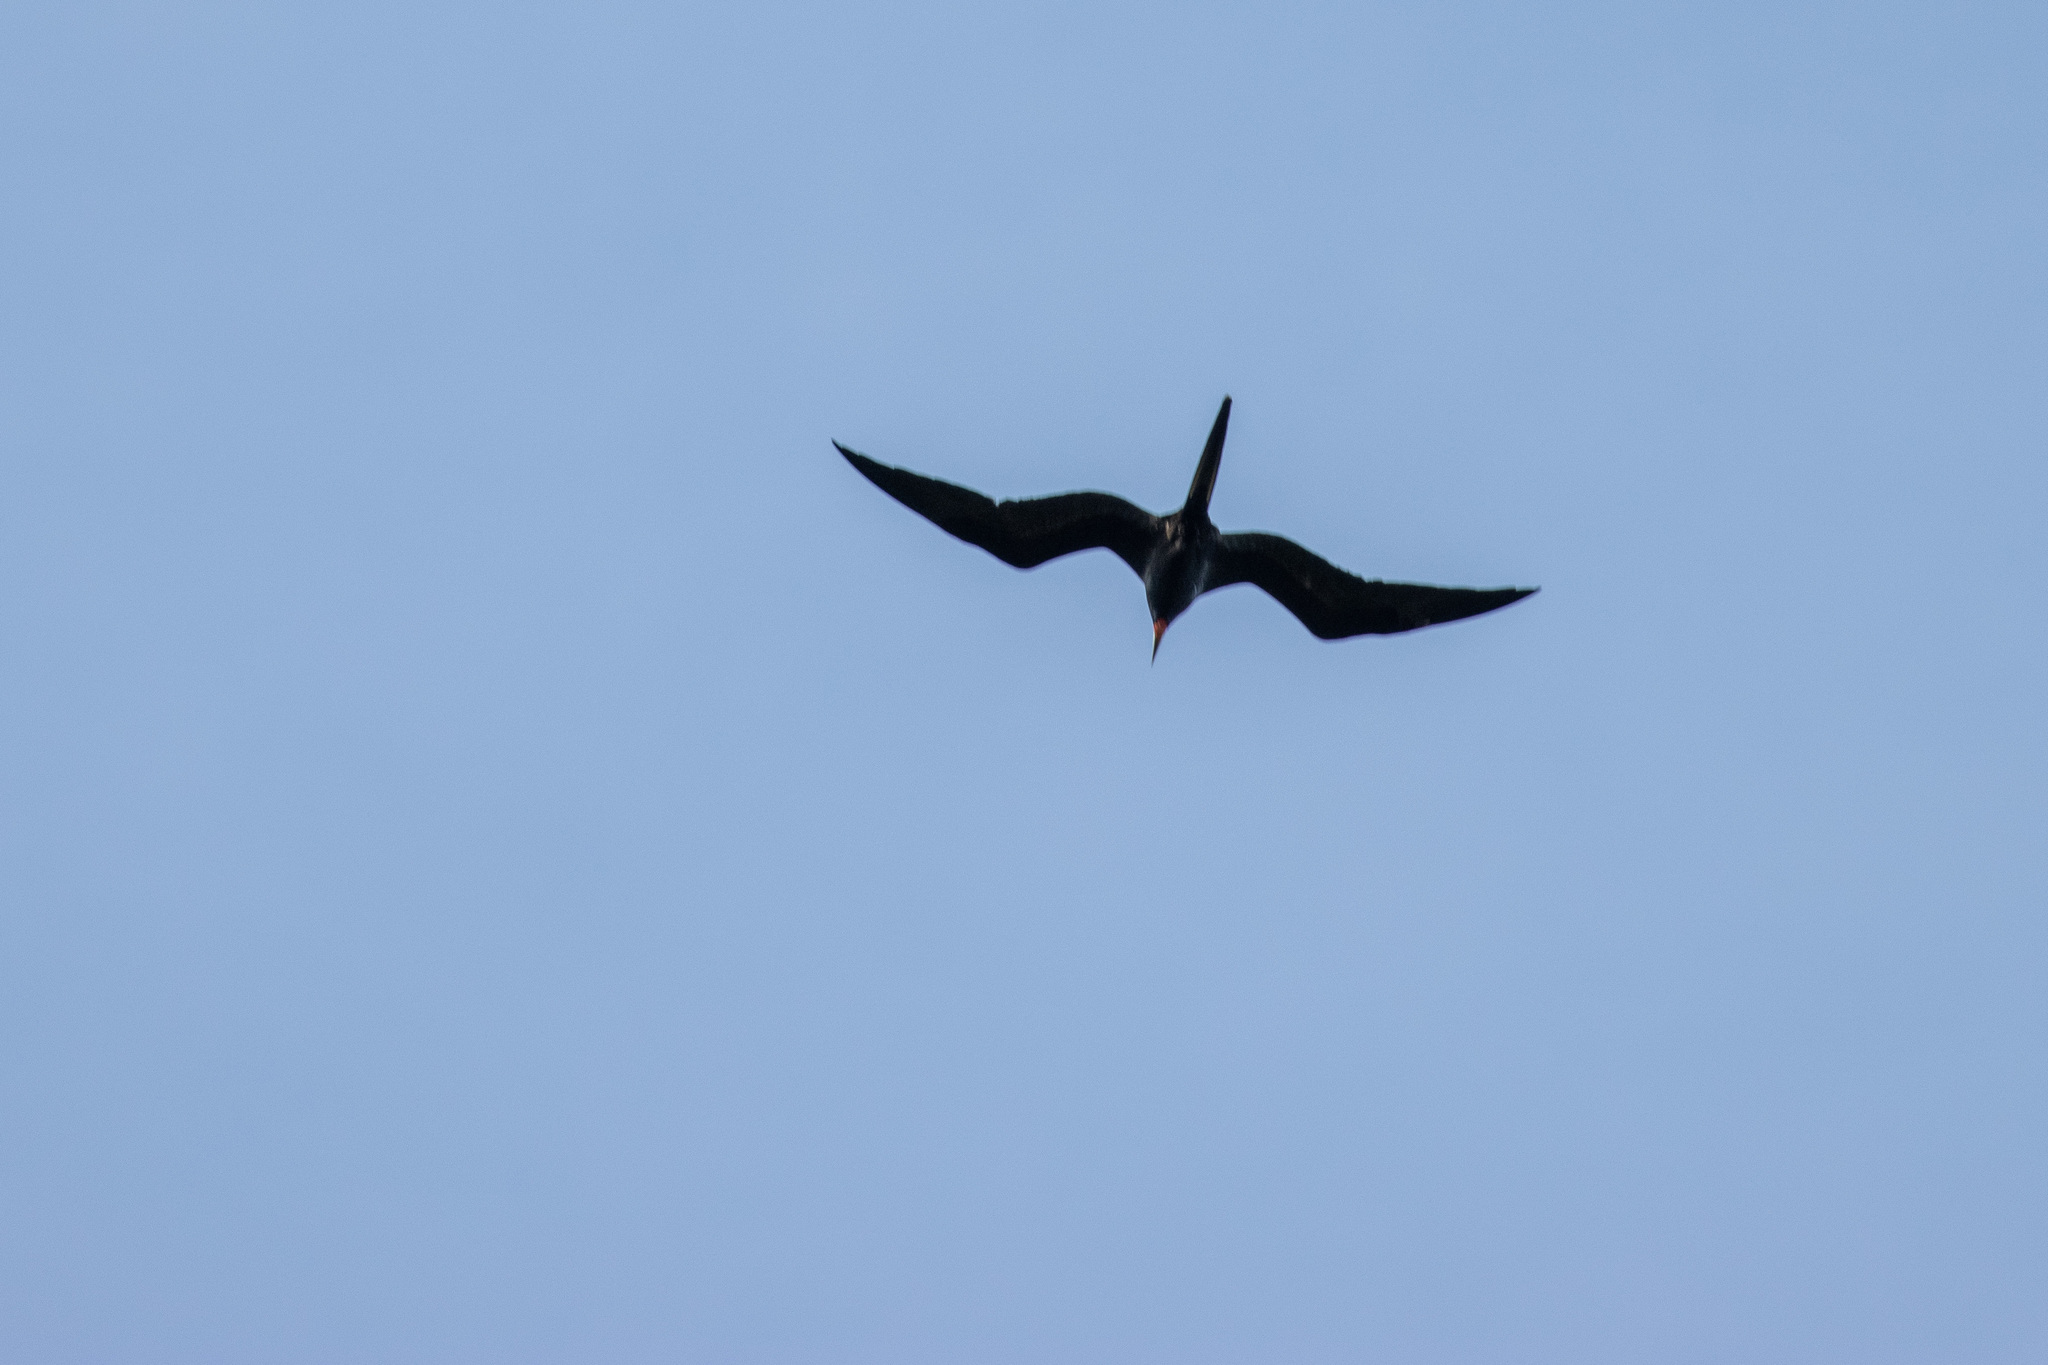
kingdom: Animalia
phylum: Chordata
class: Aves
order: Suliformes
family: Fregatidae
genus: Fregata
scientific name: Fregata magnificens
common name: Magnificent frigatebird
